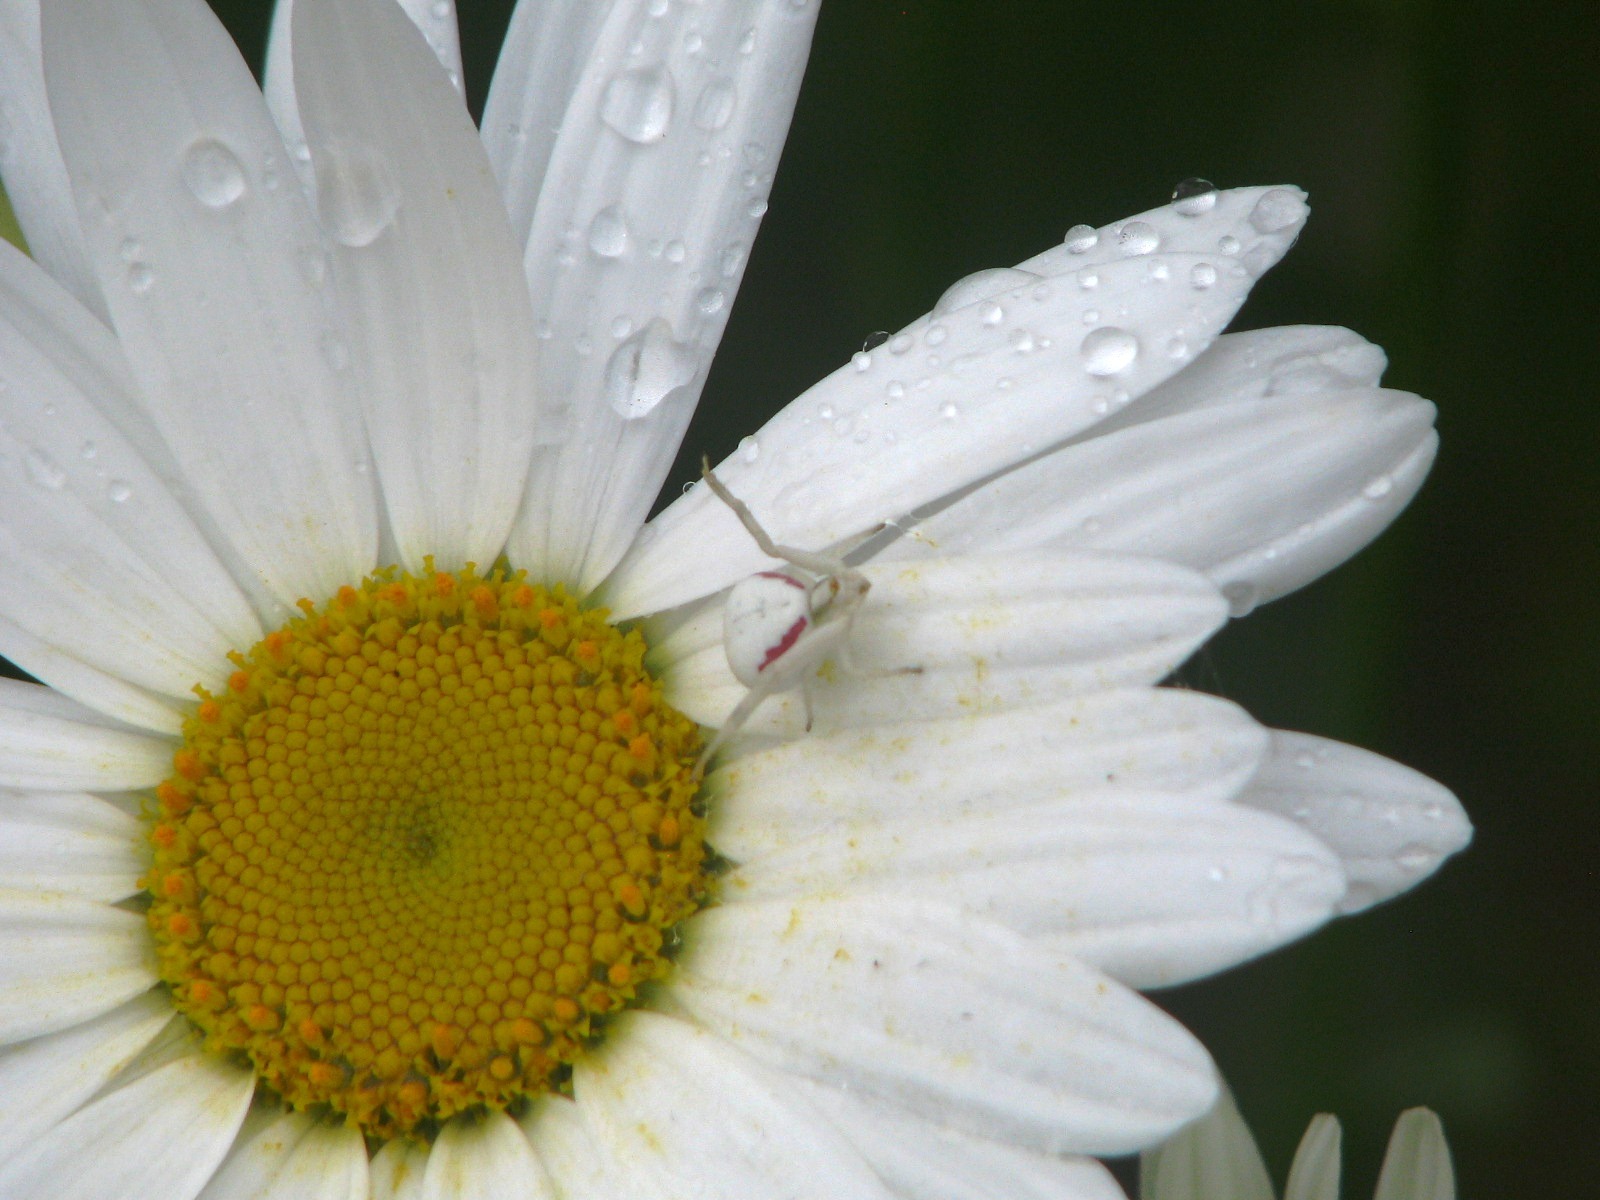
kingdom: Animalia
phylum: Arthropoda
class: Arachnida
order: Araneae
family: Thomisidae
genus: Misumena
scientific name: Misumena vatia
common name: Goldenrod crab spider
